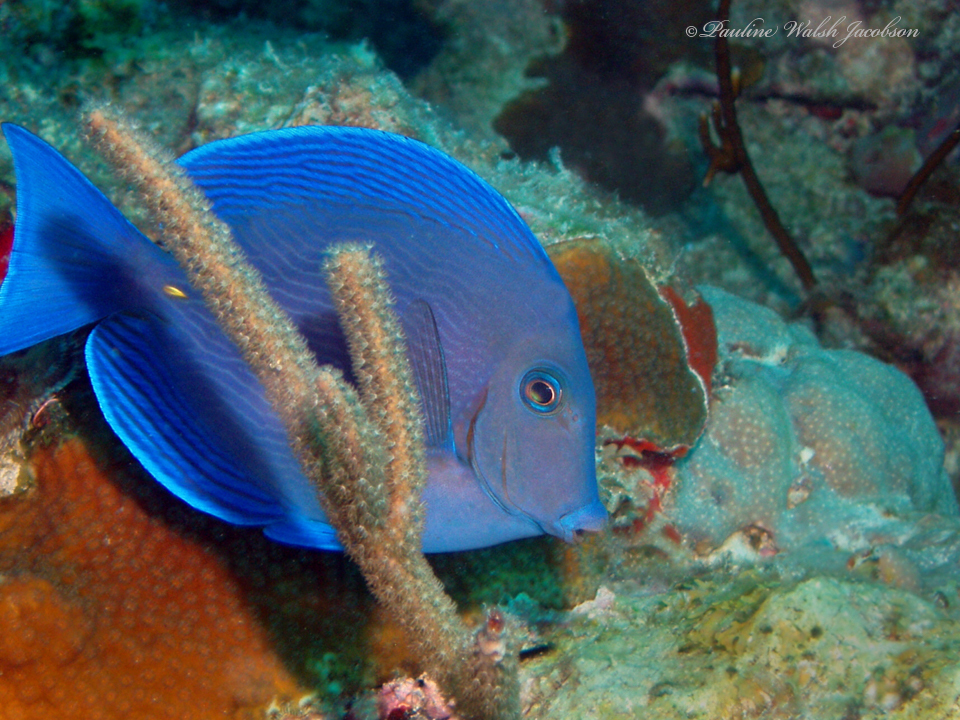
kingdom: Animalia
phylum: Chordata
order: Perciformes
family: Acanthuridae
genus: Acanthurus
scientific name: Acanthurus coeruleus
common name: Blue tang
